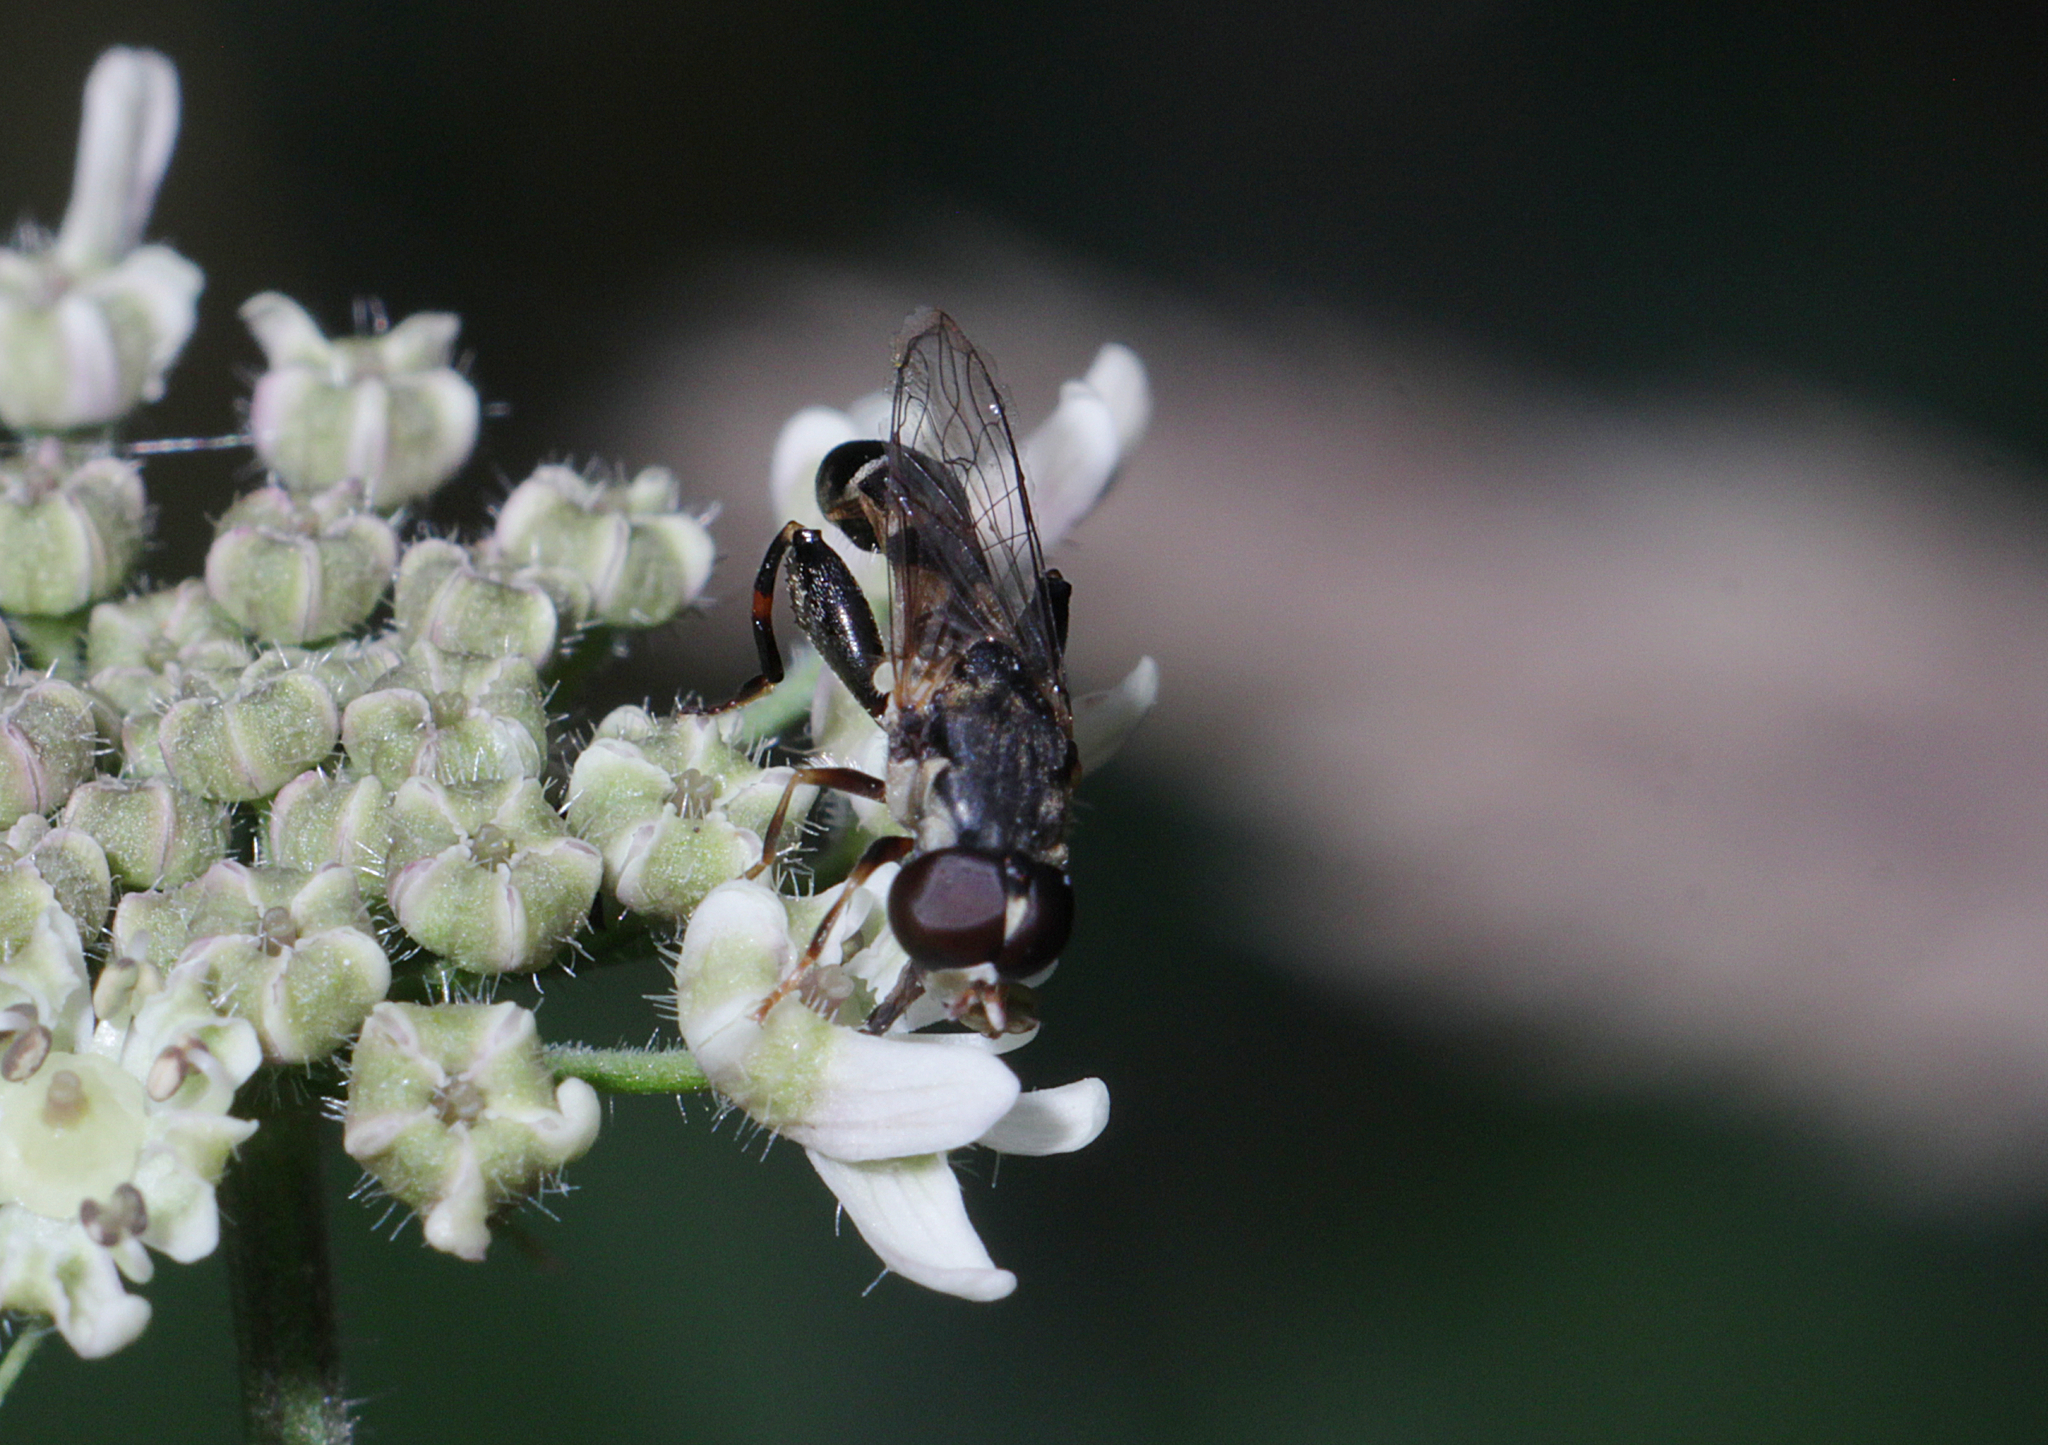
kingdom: Animalia
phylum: Arthropoda
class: Insecta
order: Diptera
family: Syrphidae
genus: Syritta
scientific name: Syritta pipiens
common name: Hover fly
